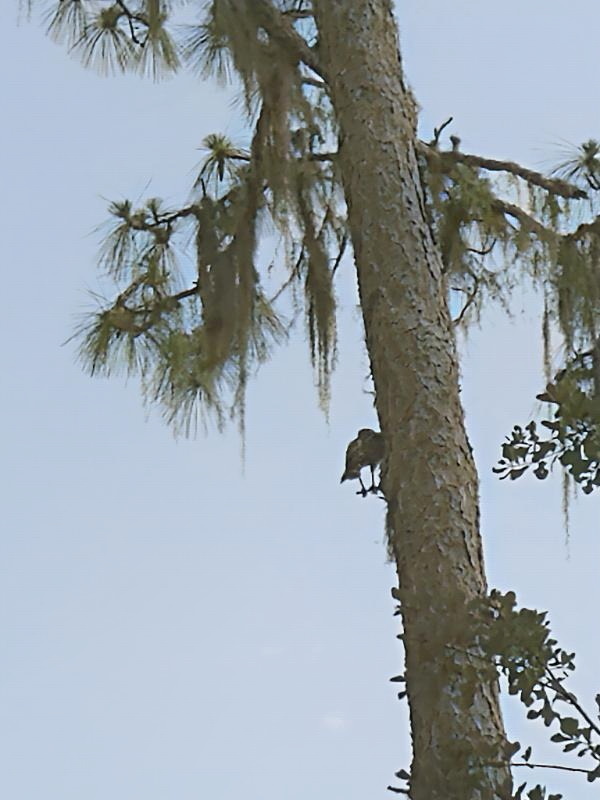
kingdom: Animalia
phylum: Chordata
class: Aves
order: Accipitriformes
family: Accipitridae
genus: Buteo
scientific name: Buteo lineatus
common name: Red-shouldered hawk
